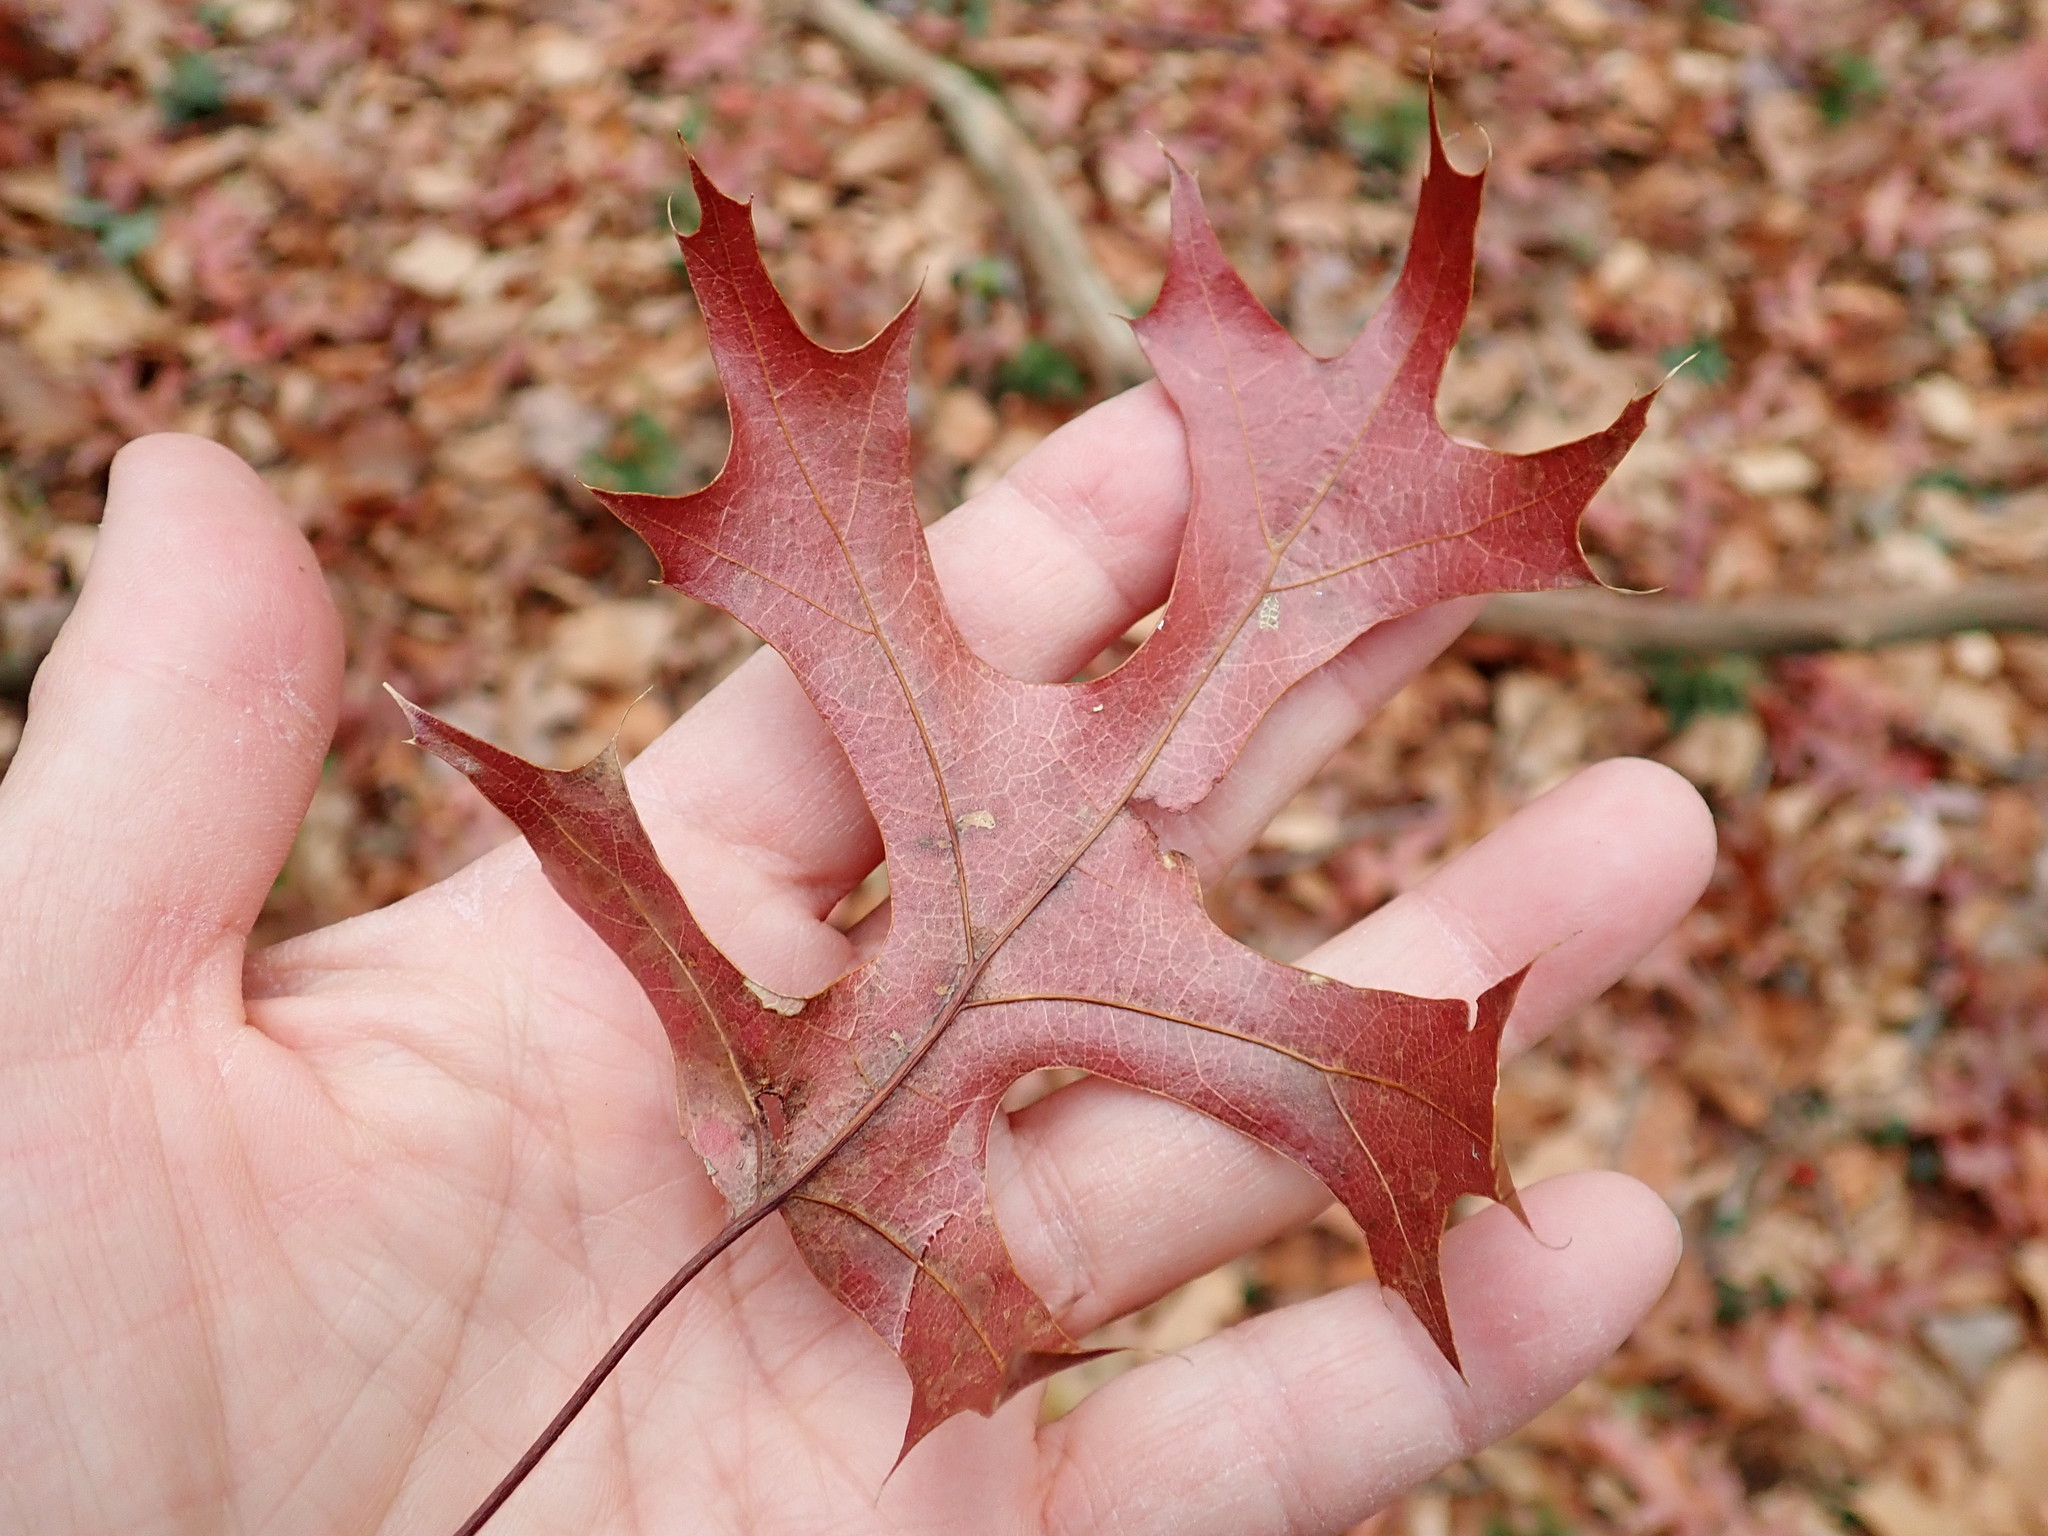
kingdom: Plantae
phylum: Tracheophyta
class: Magnoliopsida
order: Fagales
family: Fagaceae
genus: Quercus
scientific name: Quercus coccinea
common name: Scarlet oak
